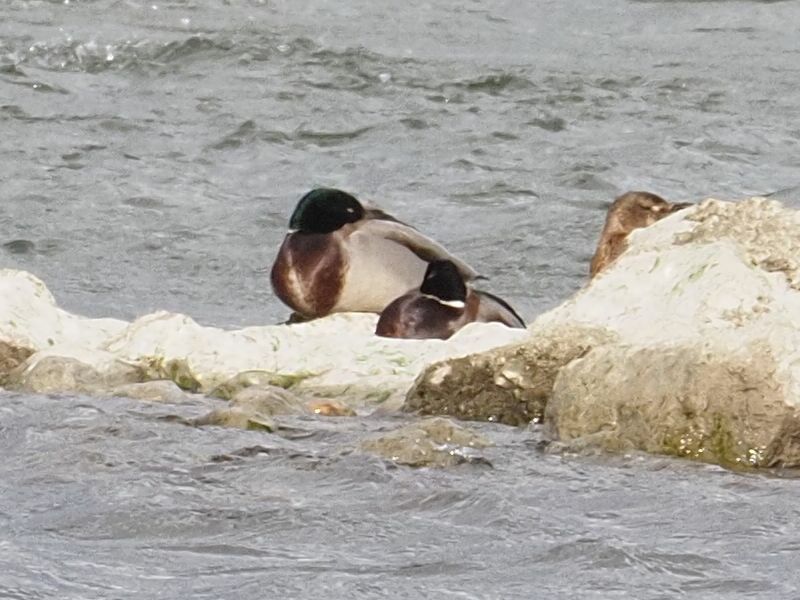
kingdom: Animalia
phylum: Chordata
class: Aves
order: Anseriformes
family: Anatidae
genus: Anas
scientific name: Anas platyrhynchos
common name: Mallard
